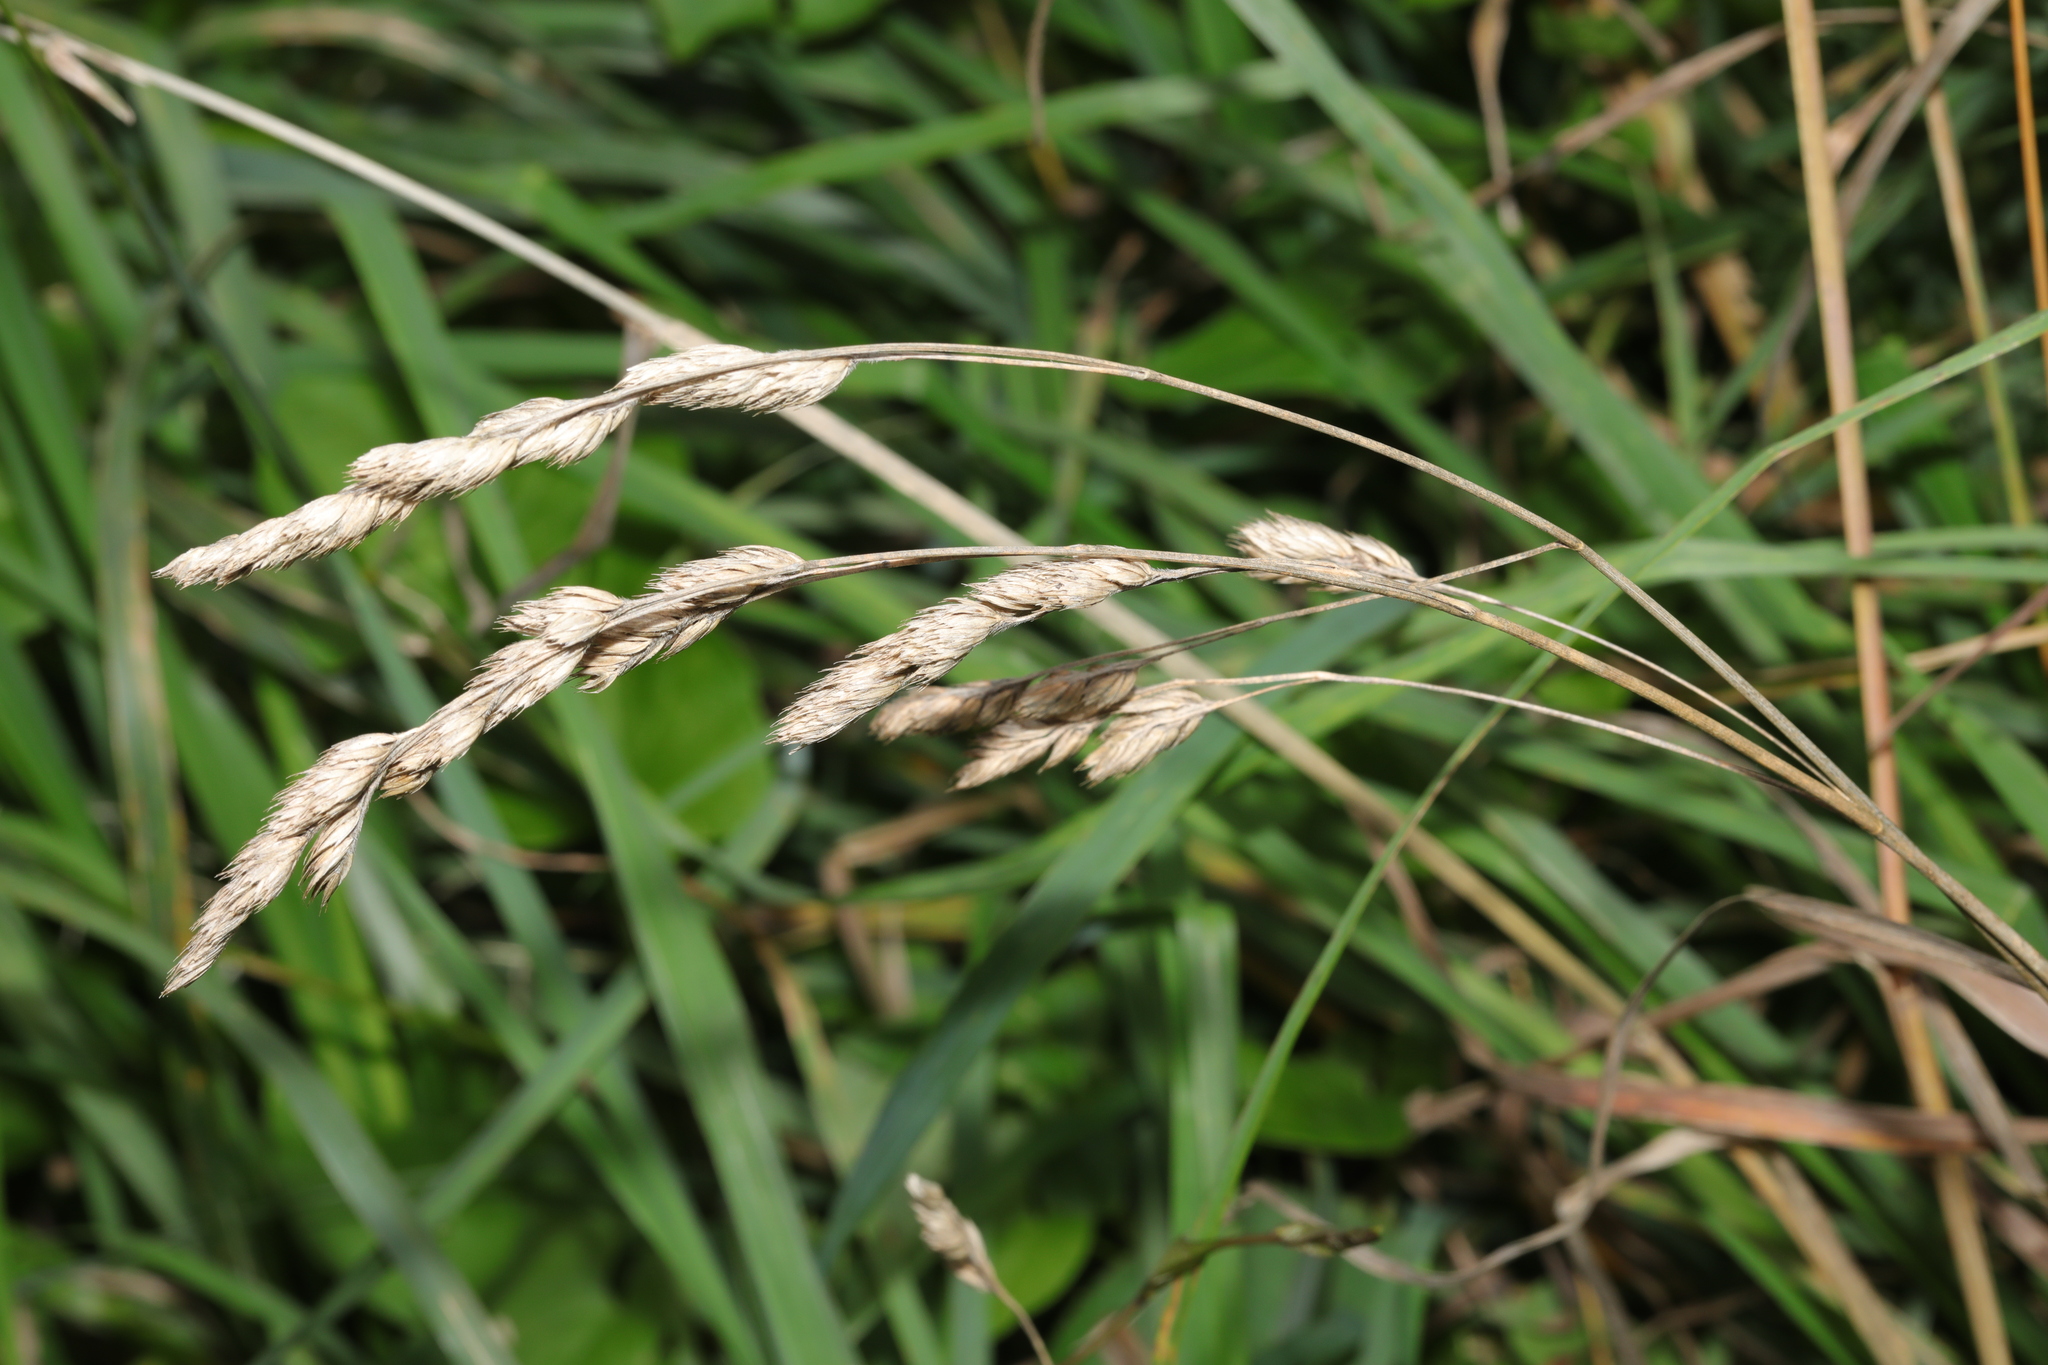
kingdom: Plantae
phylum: Tracheophyta
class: Liliopsida
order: Poales
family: Poaceae
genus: Dactylis
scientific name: Dactylis glomerata
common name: Orchardgrass
